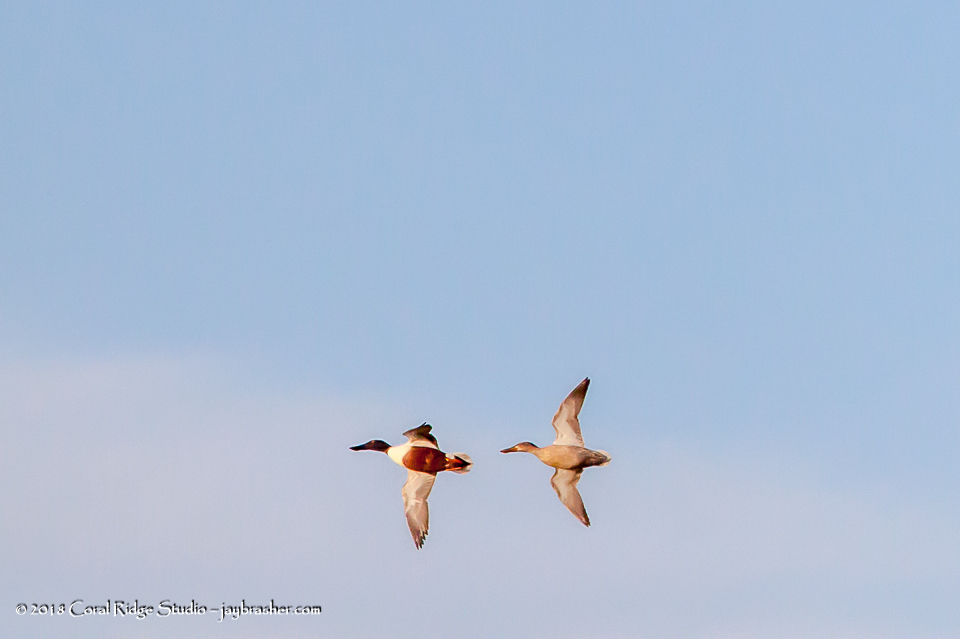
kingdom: Animalia
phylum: Chordata
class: Aves
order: Anseriformes
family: Anatidae
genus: Spatula
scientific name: Spatula clypeata
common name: Northern shoveler
